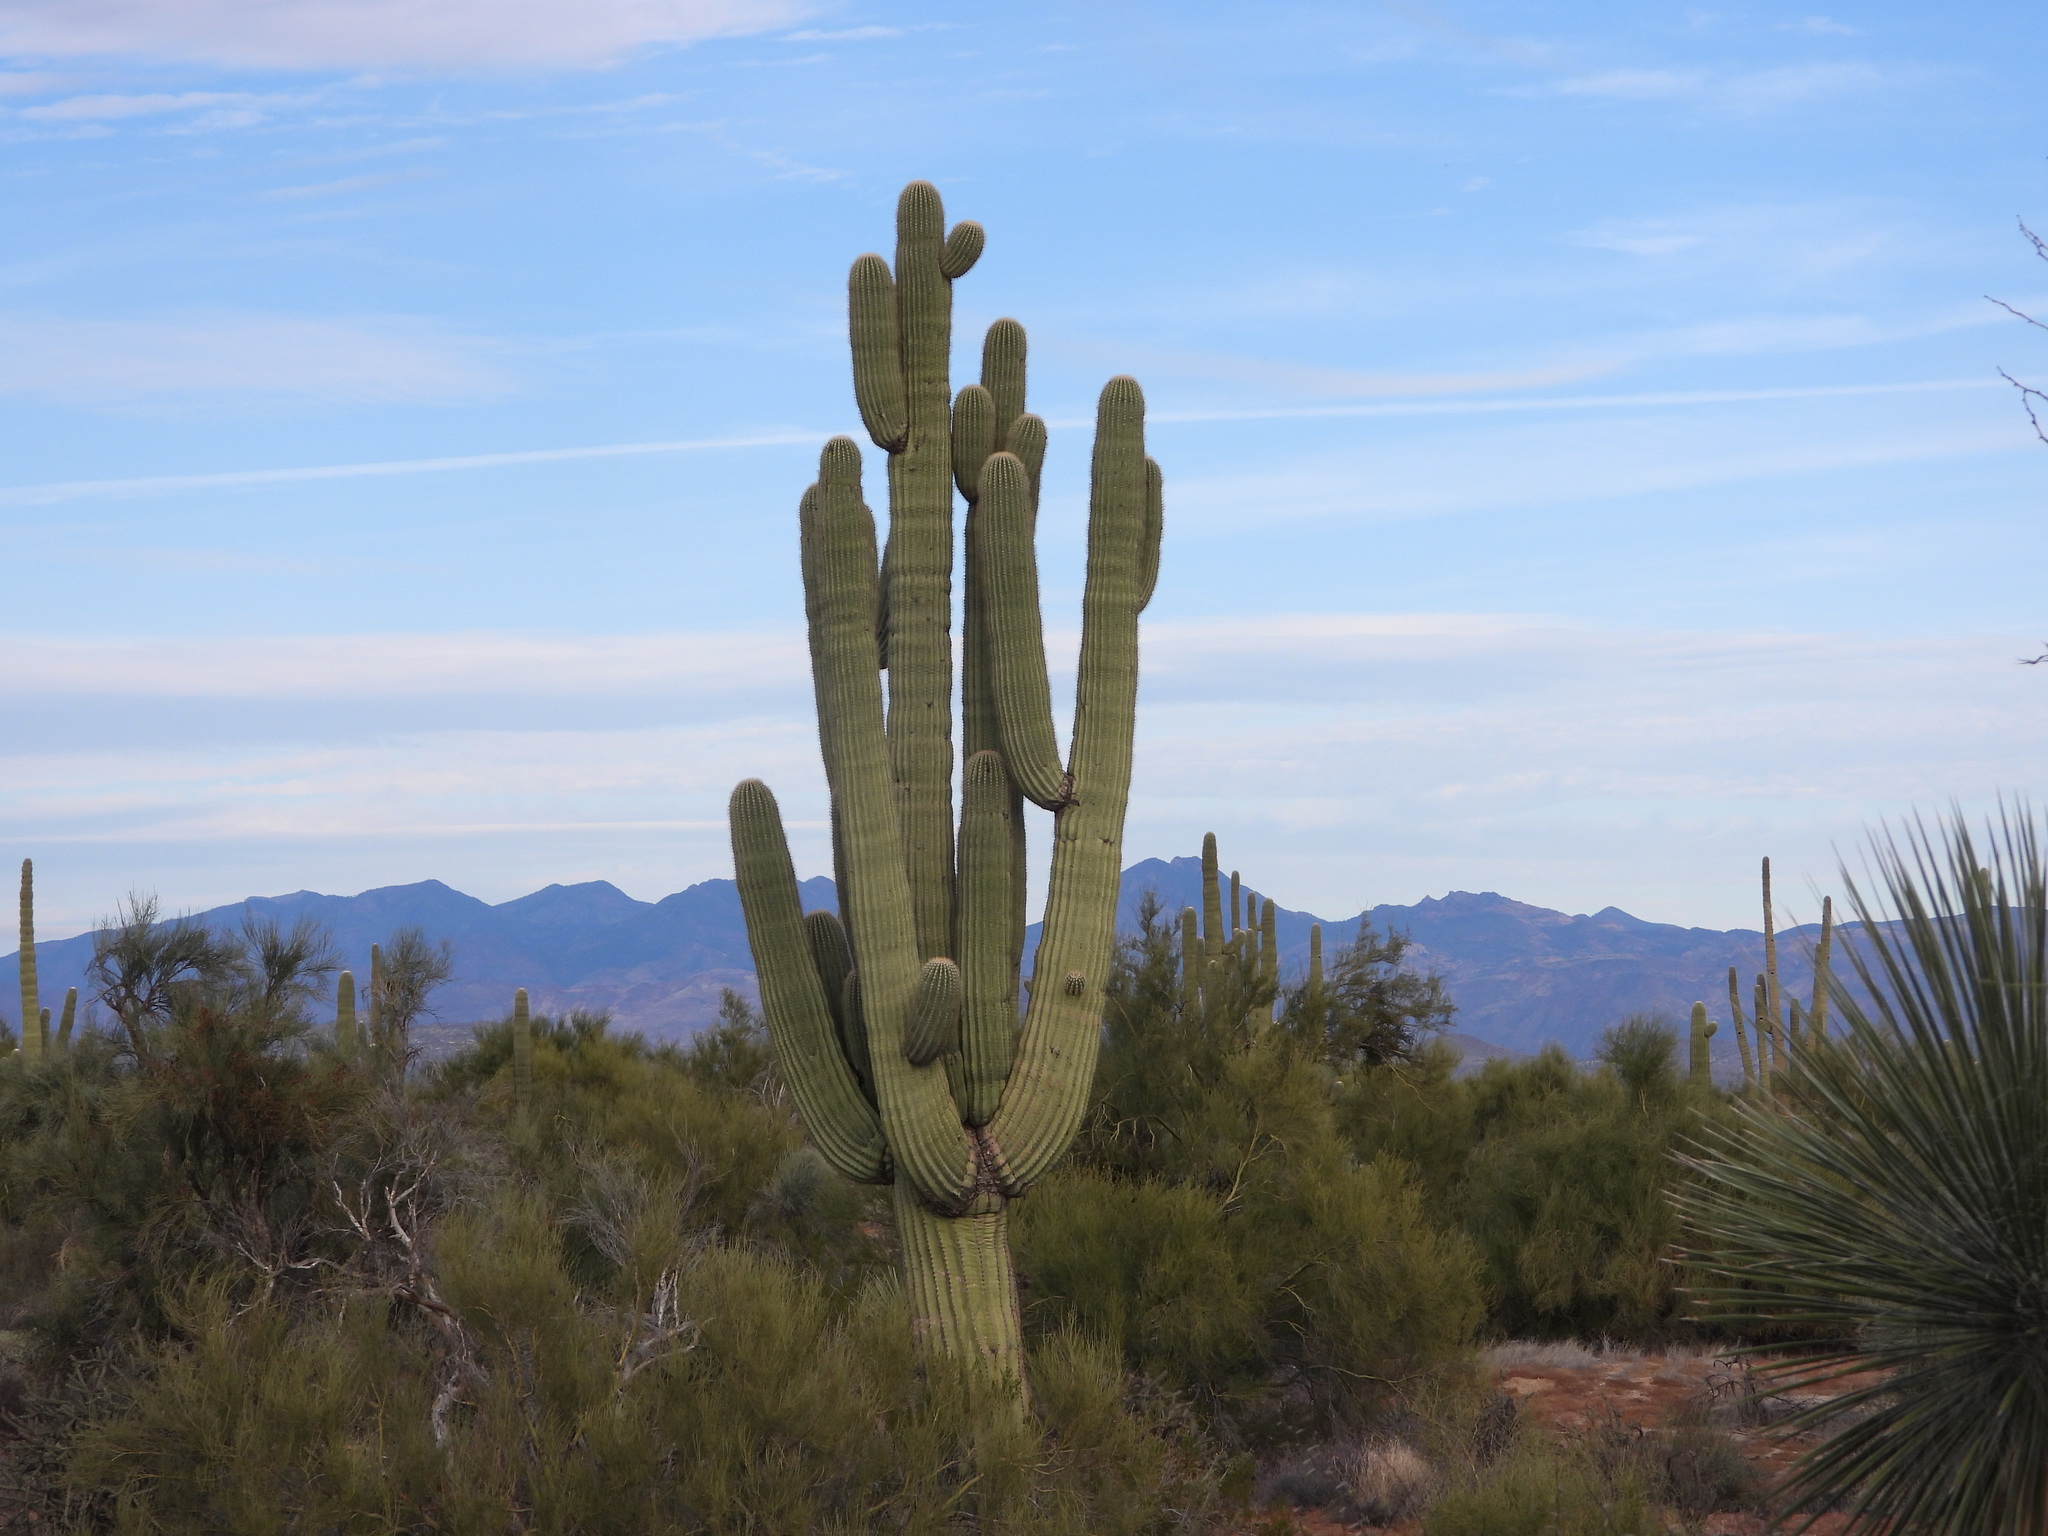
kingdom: Plantae
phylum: Tracheophyta
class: Magnoliopsida
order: Caryophyllales
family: Cactaceae
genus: Carnegiea
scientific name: Carnegiea gigantea
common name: Saguaro
